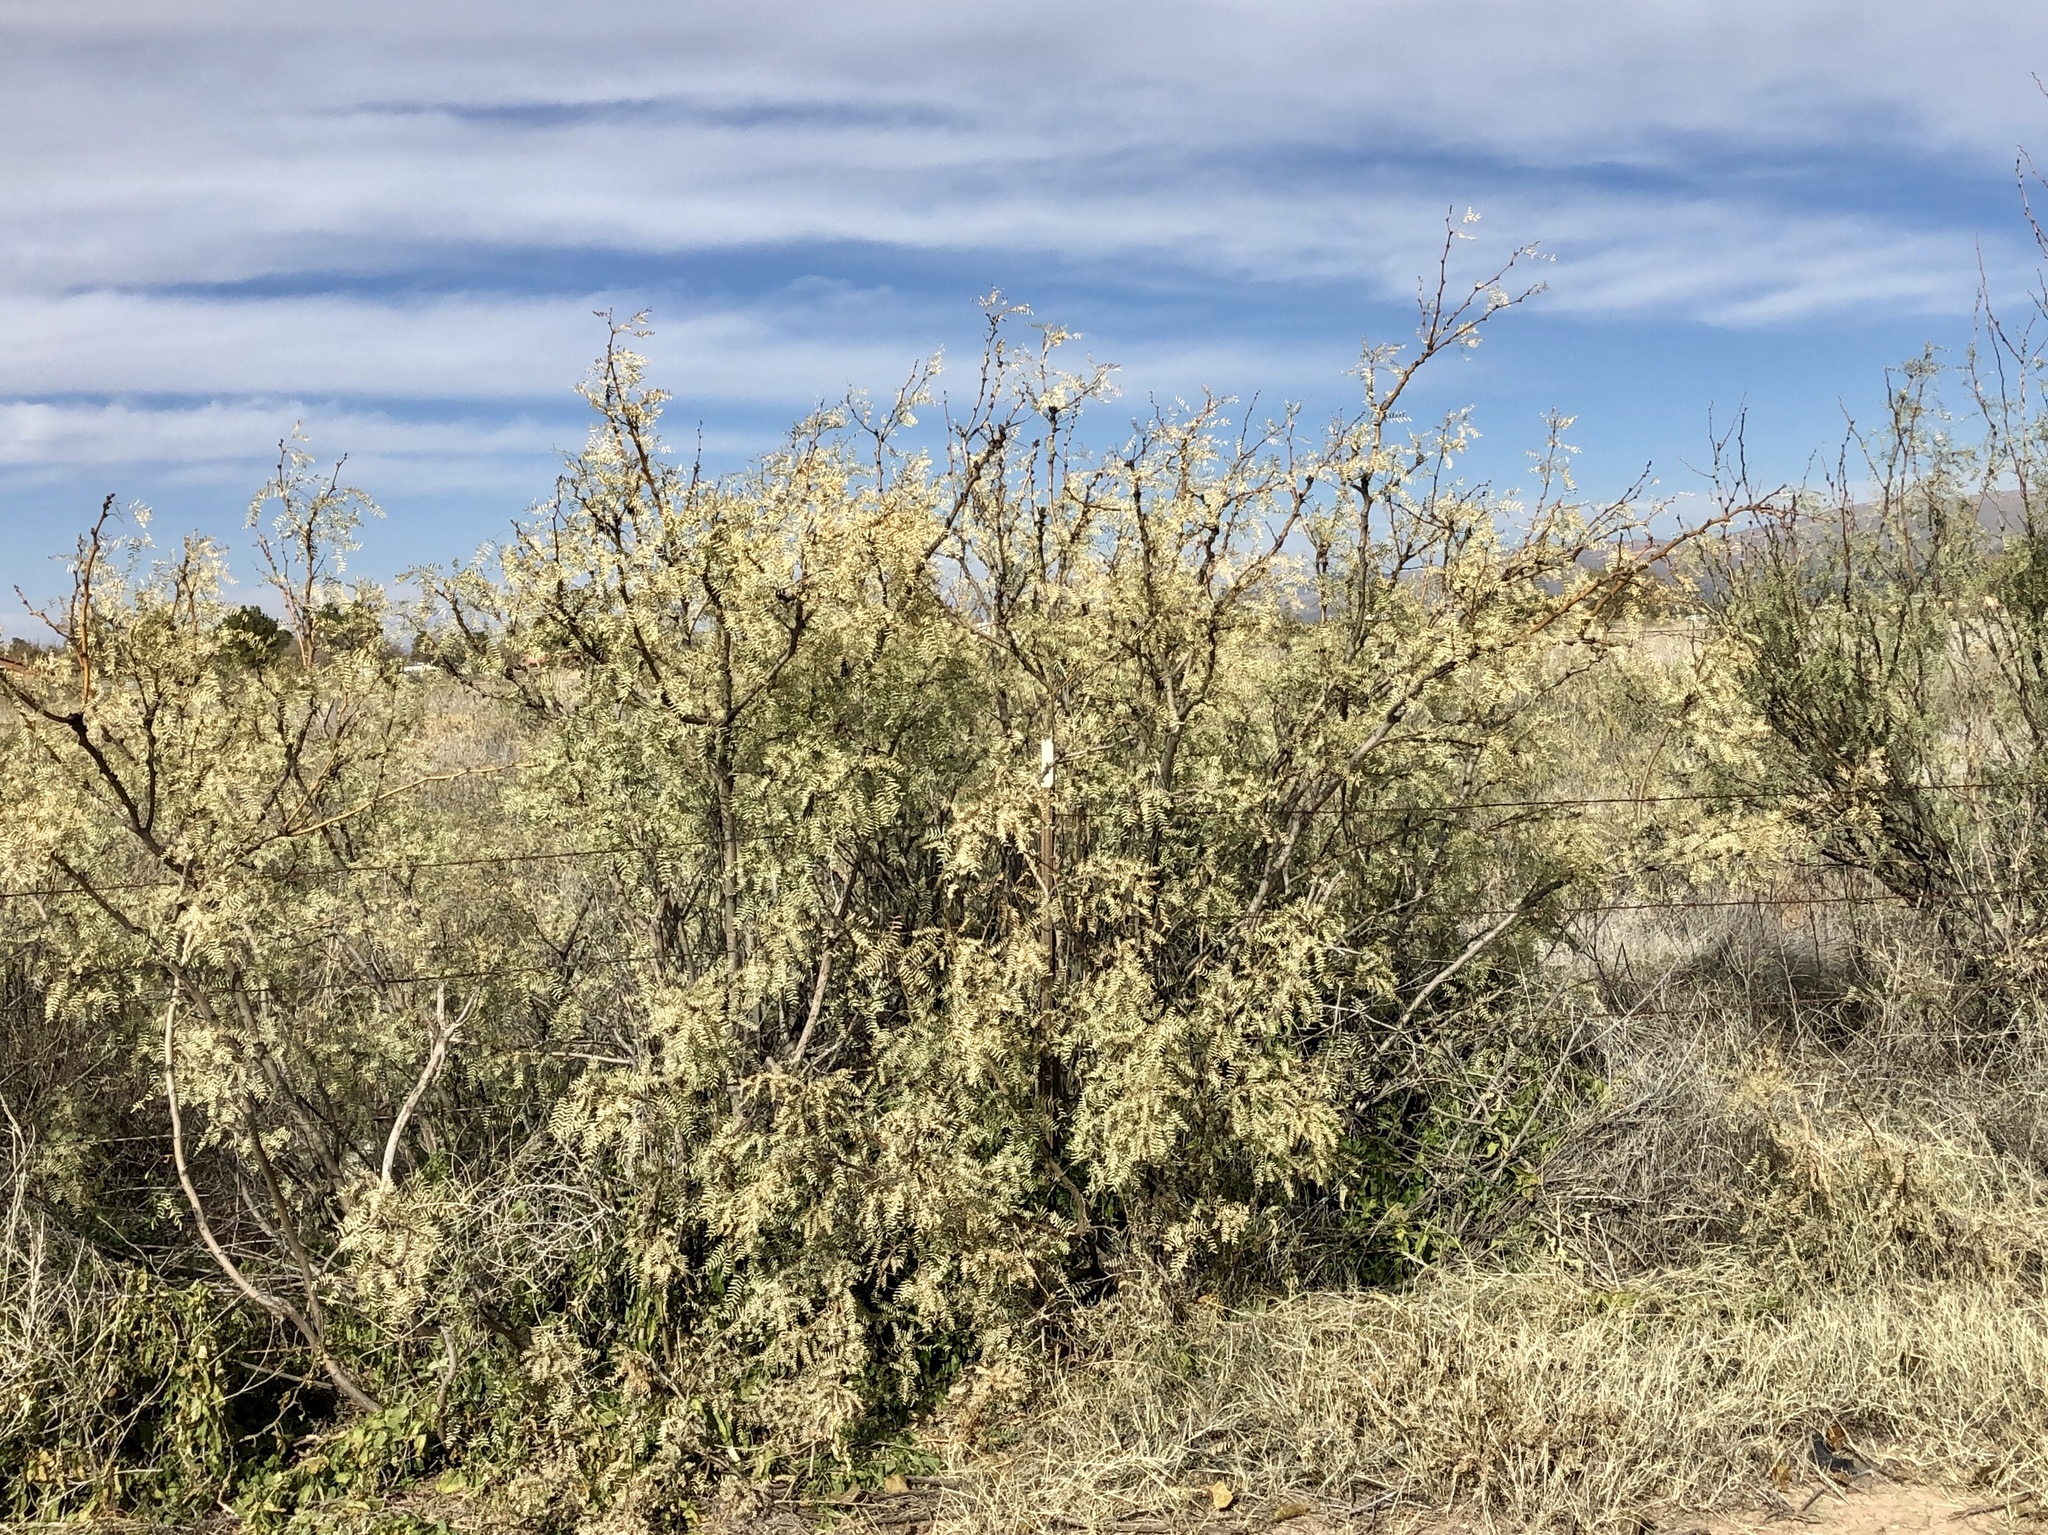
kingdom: Plantae
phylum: Tracheophyta
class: Magnoliopsida
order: Fabales
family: Fabaceae
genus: Prosopis
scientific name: Prosopis glandulosa
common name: Honey mesquite
